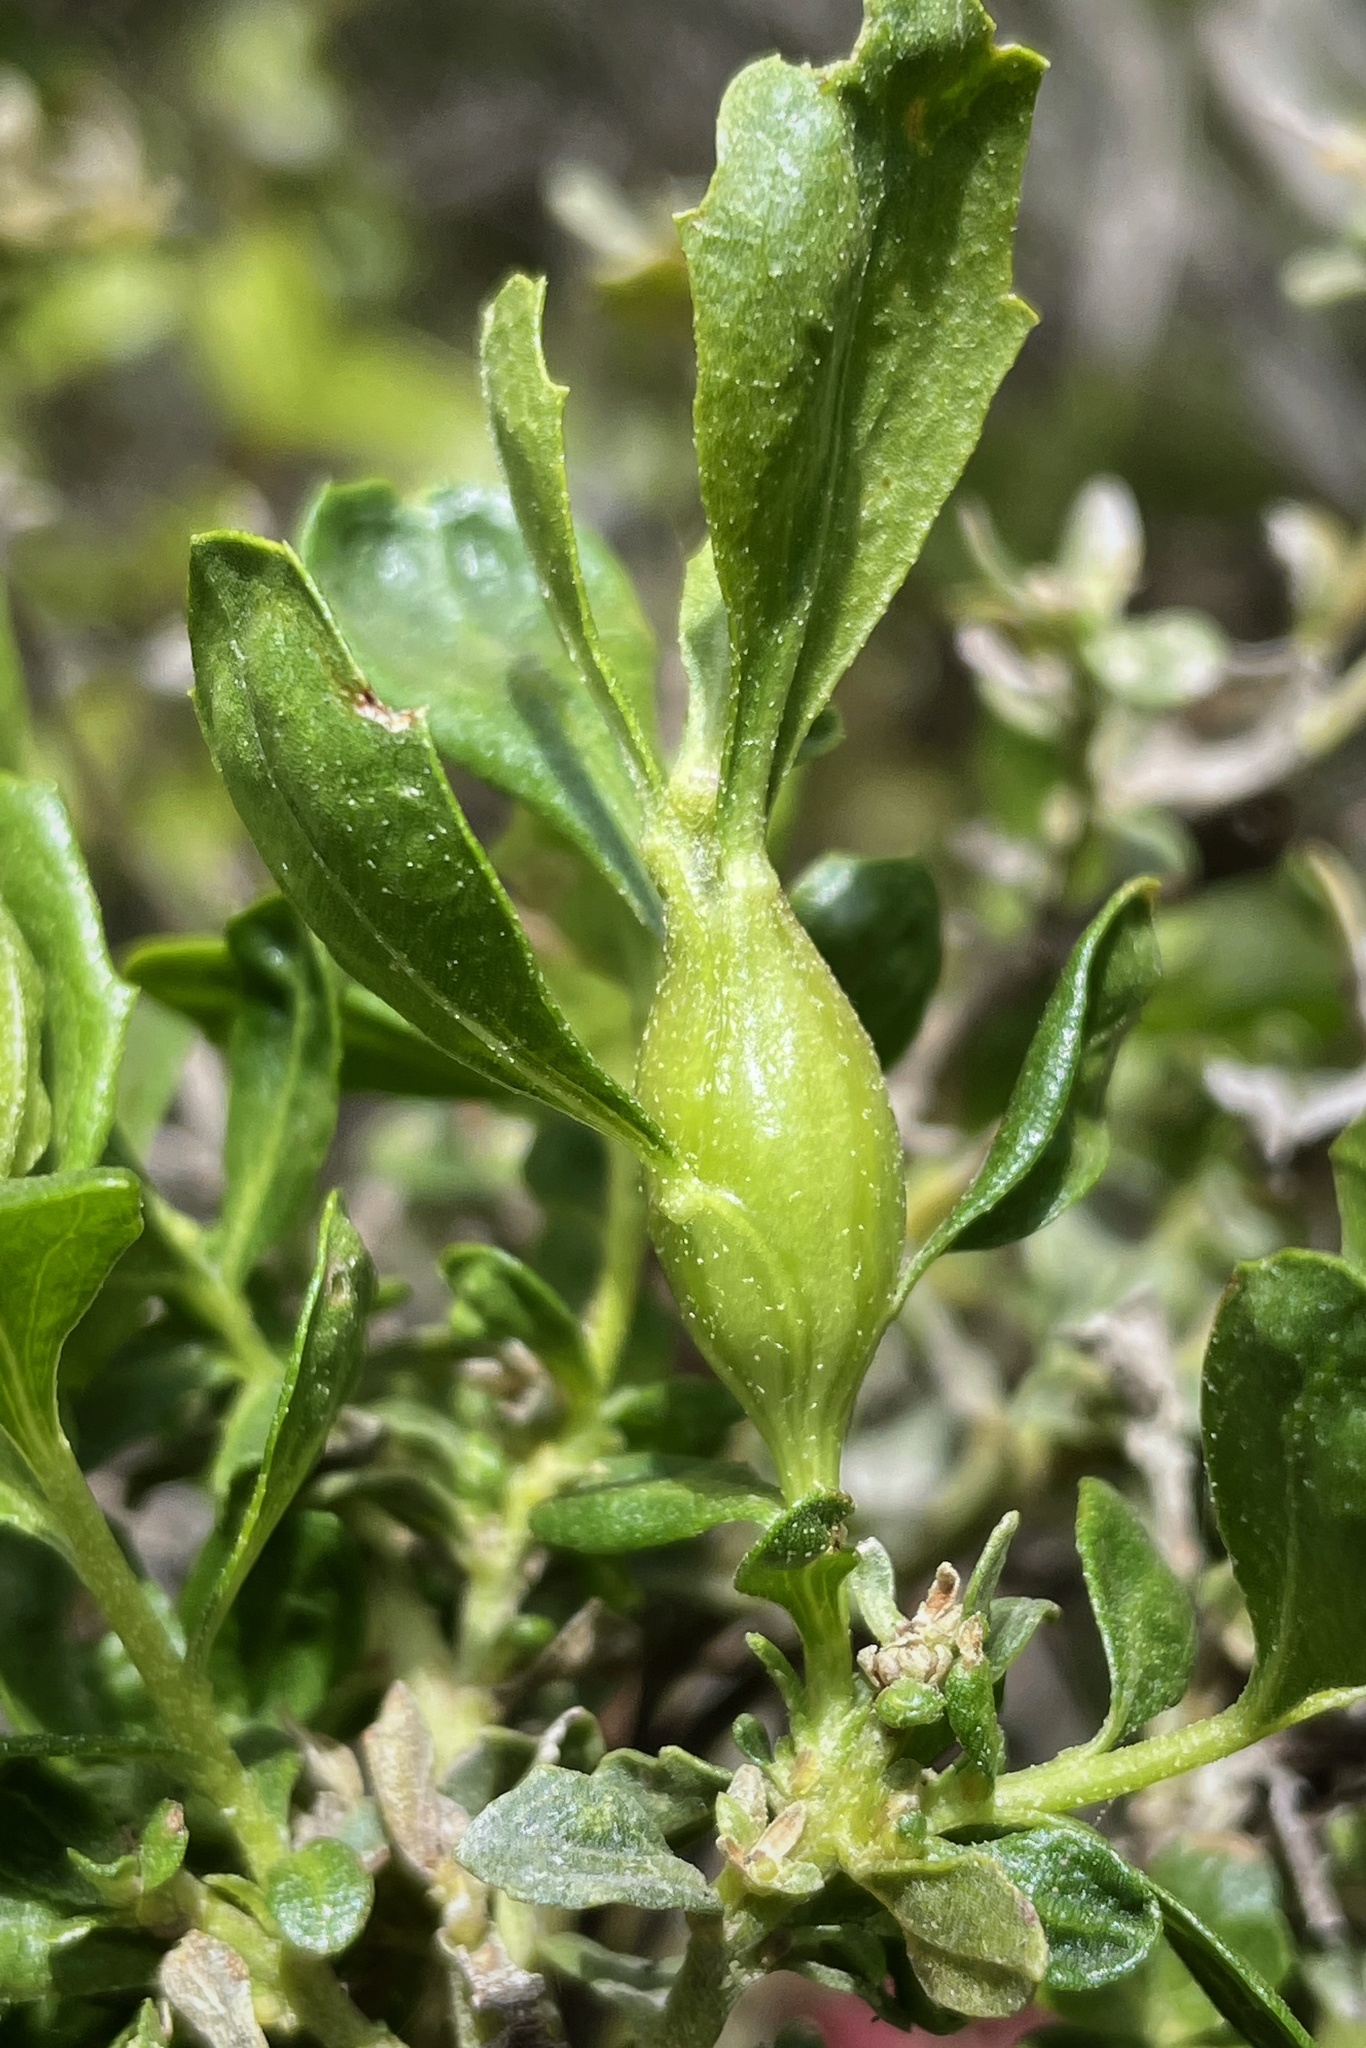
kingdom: Animalia
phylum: Arthropoda
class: Insecta
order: Lepidoptera
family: Gelechiidae
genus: Gnorimoschema
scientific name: Gnorimoschema baccharisella
